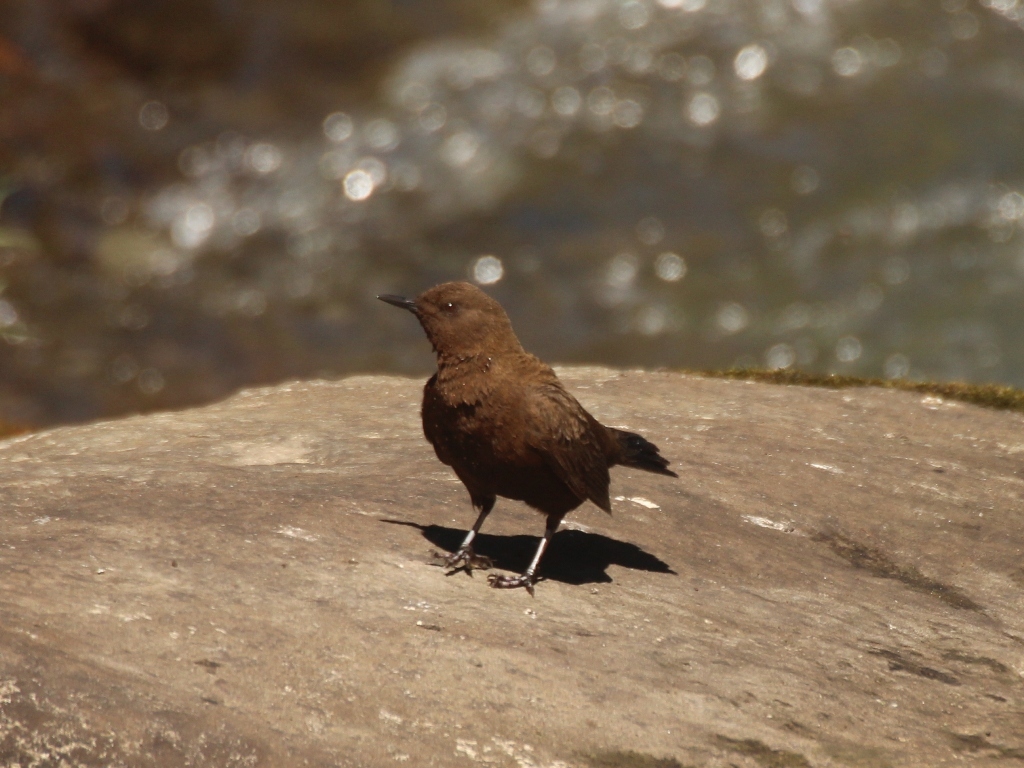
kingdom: Animalia
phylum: Chordata
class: Aves
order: Passeriformes
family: Cinclidae
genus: Cinclus
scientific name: Cinclus pallasii
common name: Brown dipper
